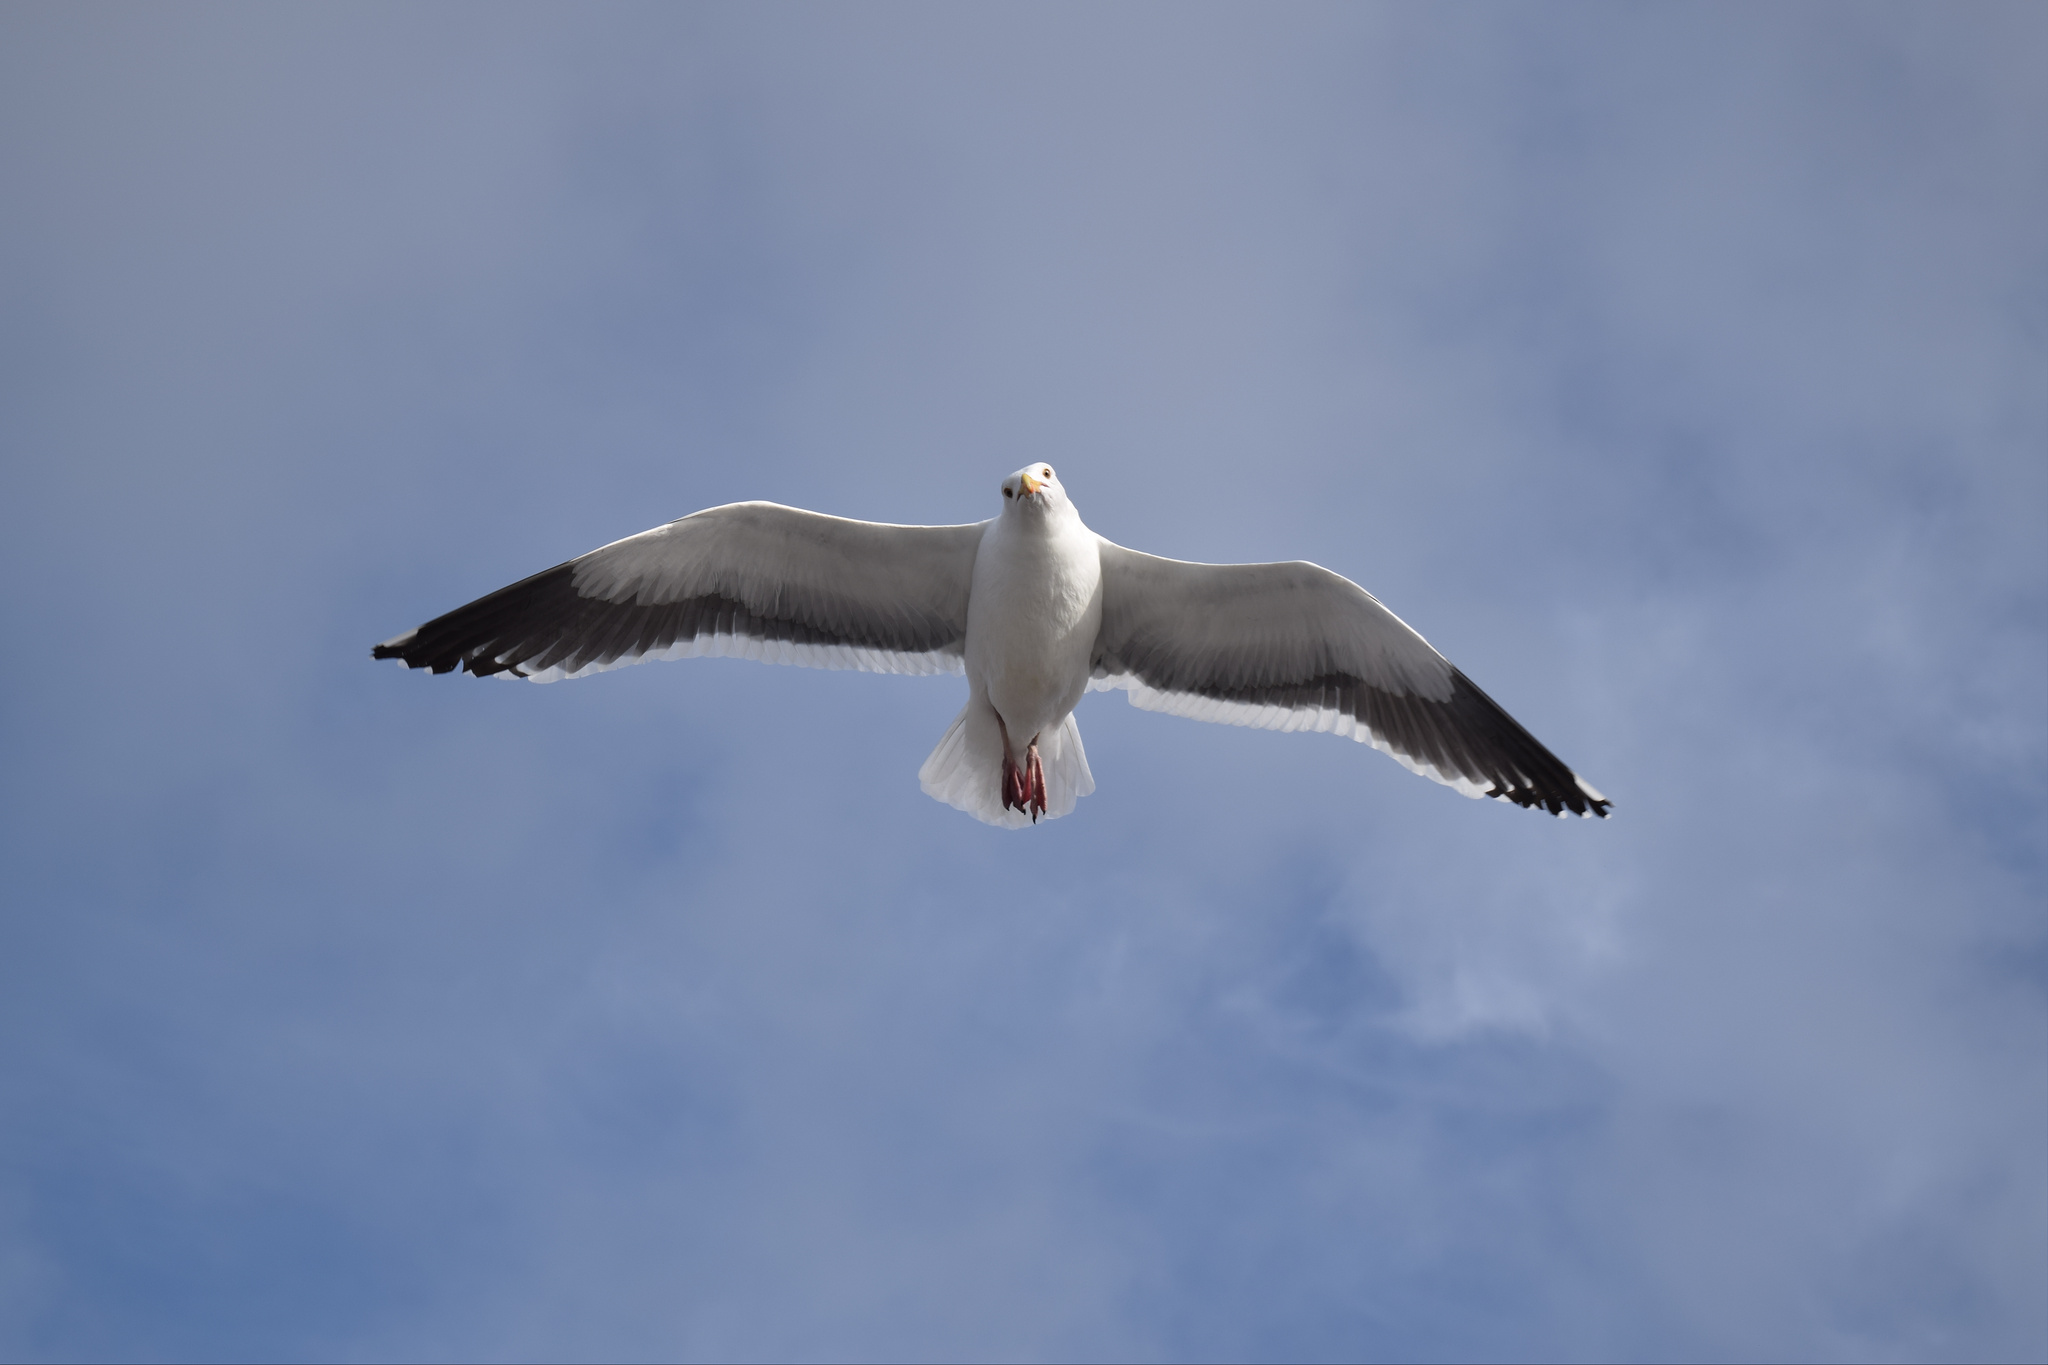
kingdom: Animalia
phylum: Chordata
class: Aves
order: Charadriiformes
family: Laridae
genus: Larus
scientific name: Larus occidentalis
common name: Western gull
